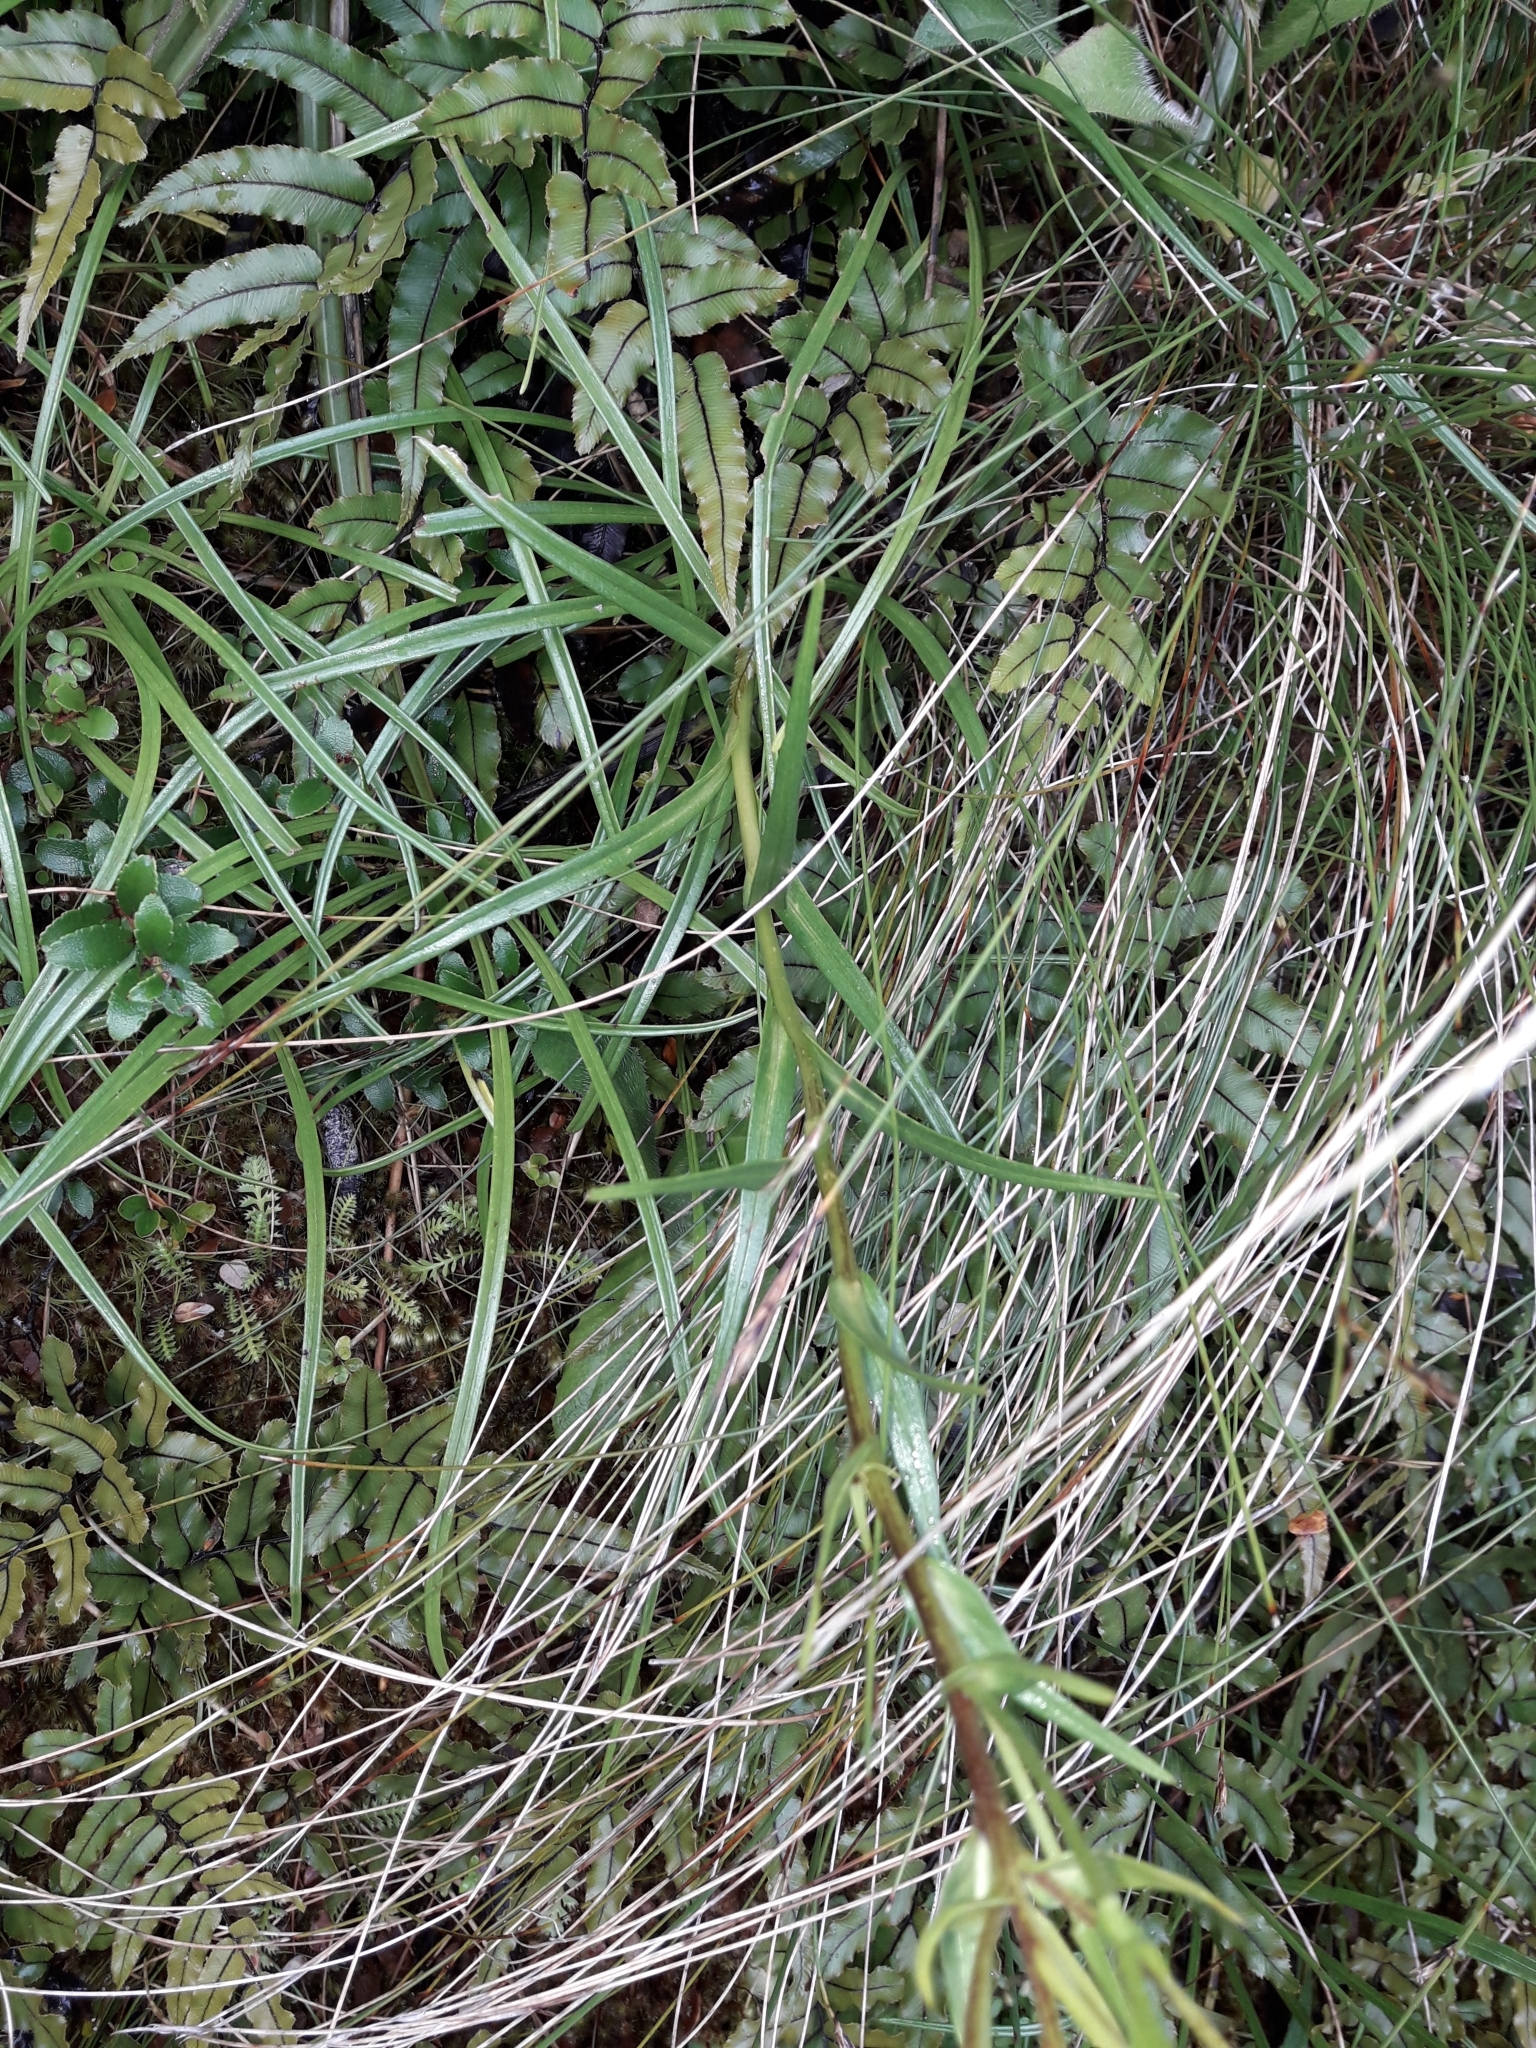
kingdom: Plantae
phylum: Tracheophyta
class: Magnoliopsida
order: Asterales
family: Asteraceae
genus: Dolichoglottis
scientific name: Dolichoglottis lyallii
